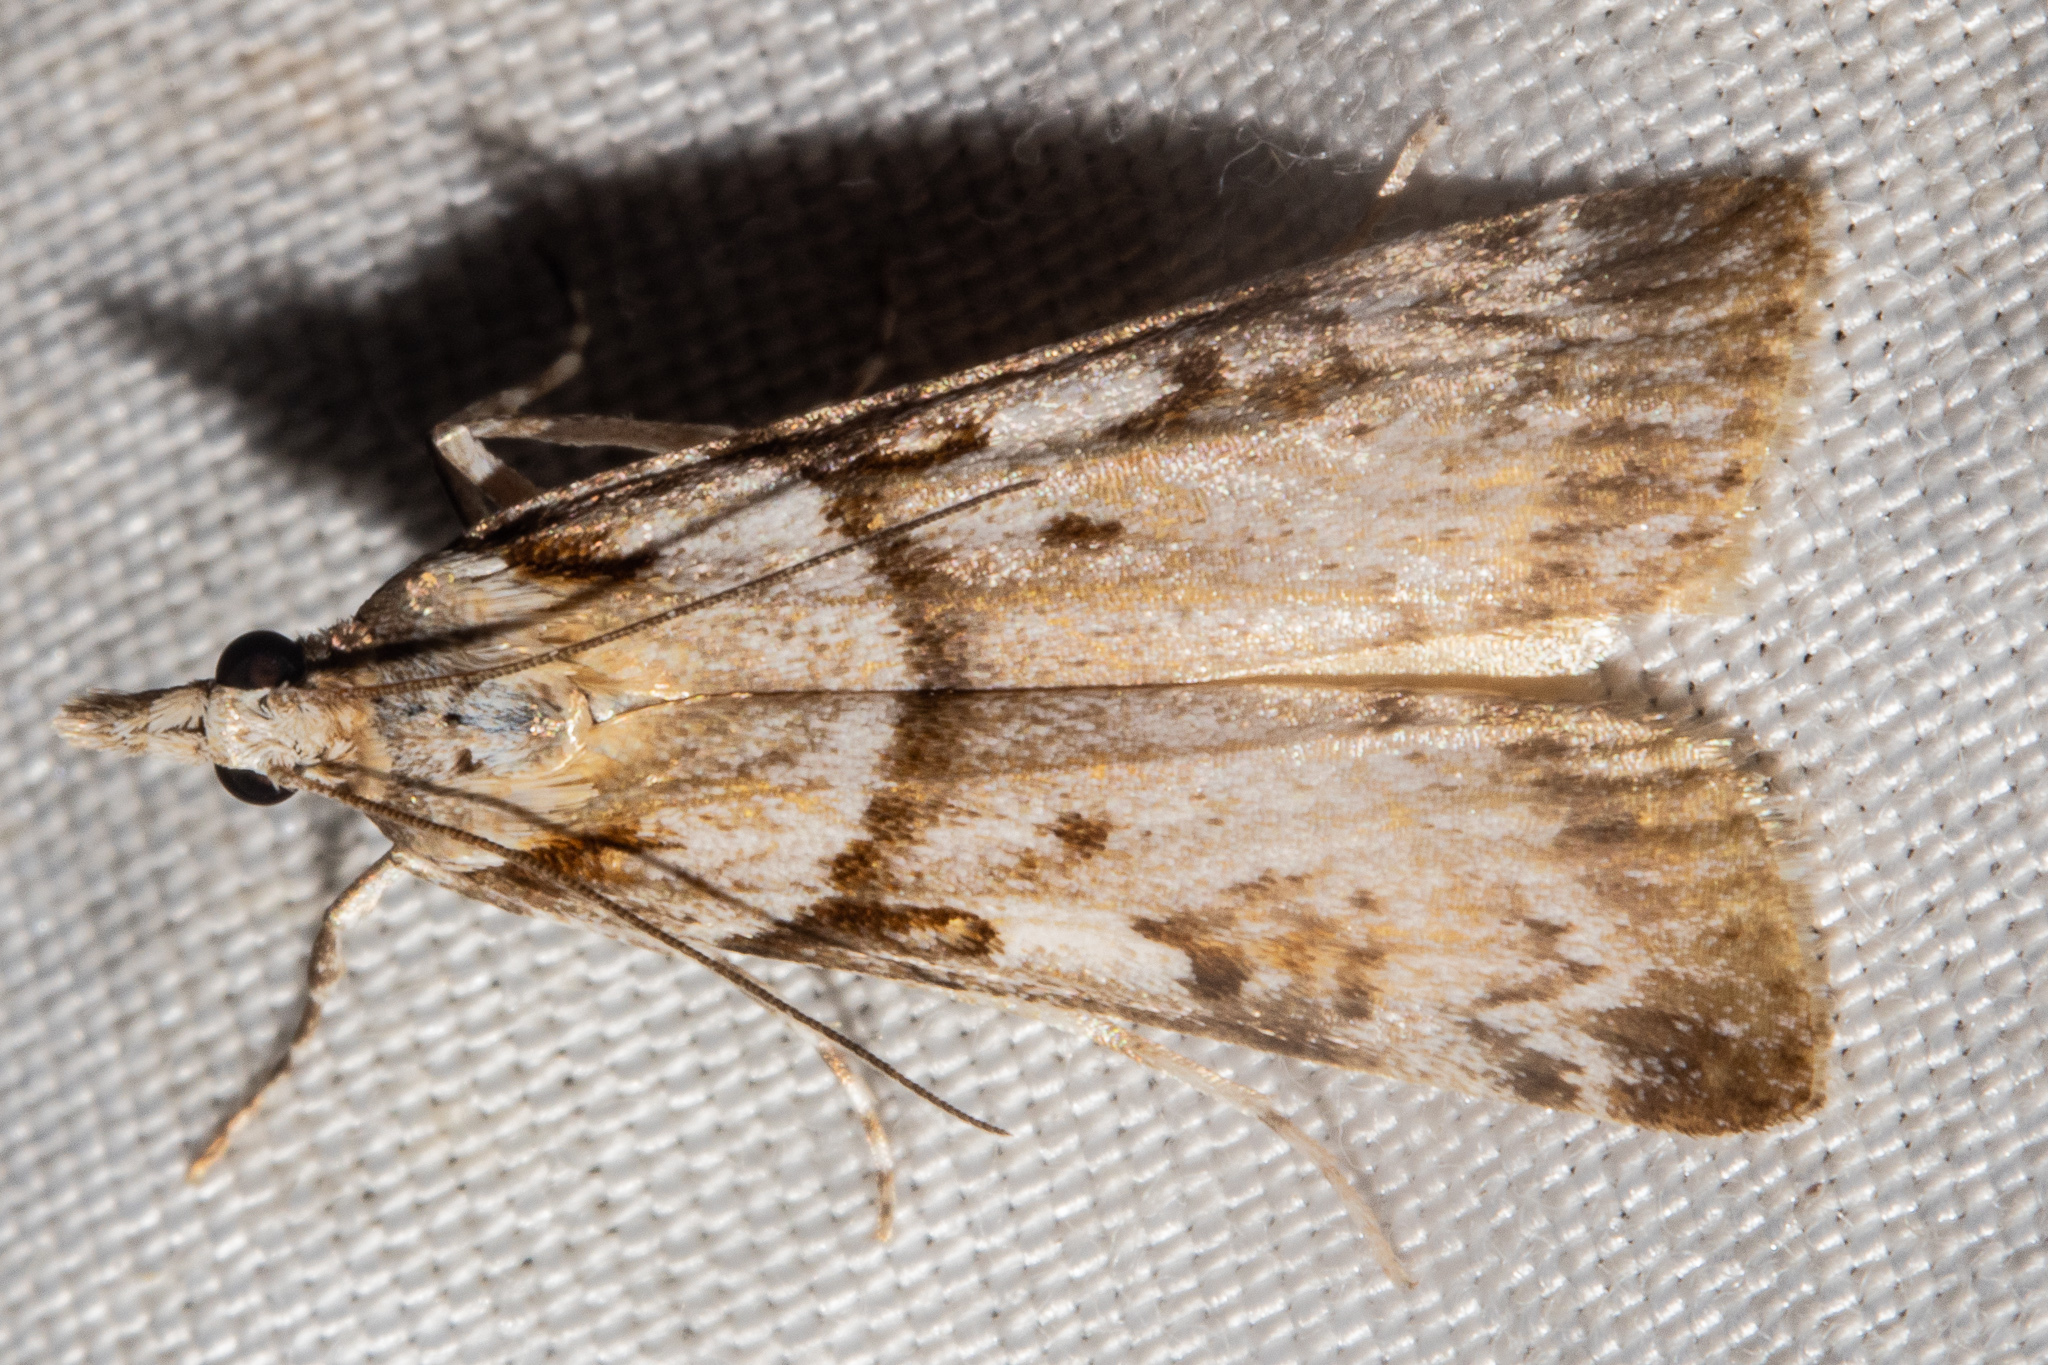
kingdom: Animalia
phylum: Arthropoda
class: Insecta
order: Lepidoptera
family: Crambidae
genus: Scoparia
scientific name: Scoparia petrina
